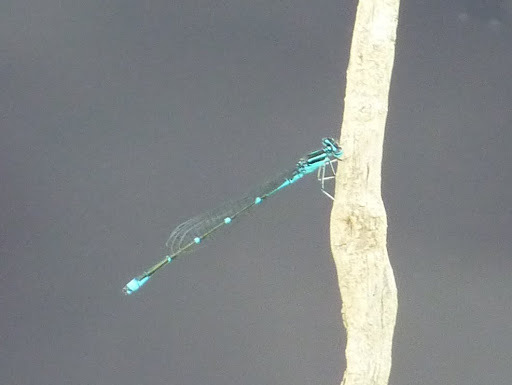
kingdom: Animalia
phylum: Arthropoda
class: Insecta
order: Odonata
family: Coenagrionidae
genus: Enallagma
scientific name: Enallagma exsulans
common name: Stream bluet
